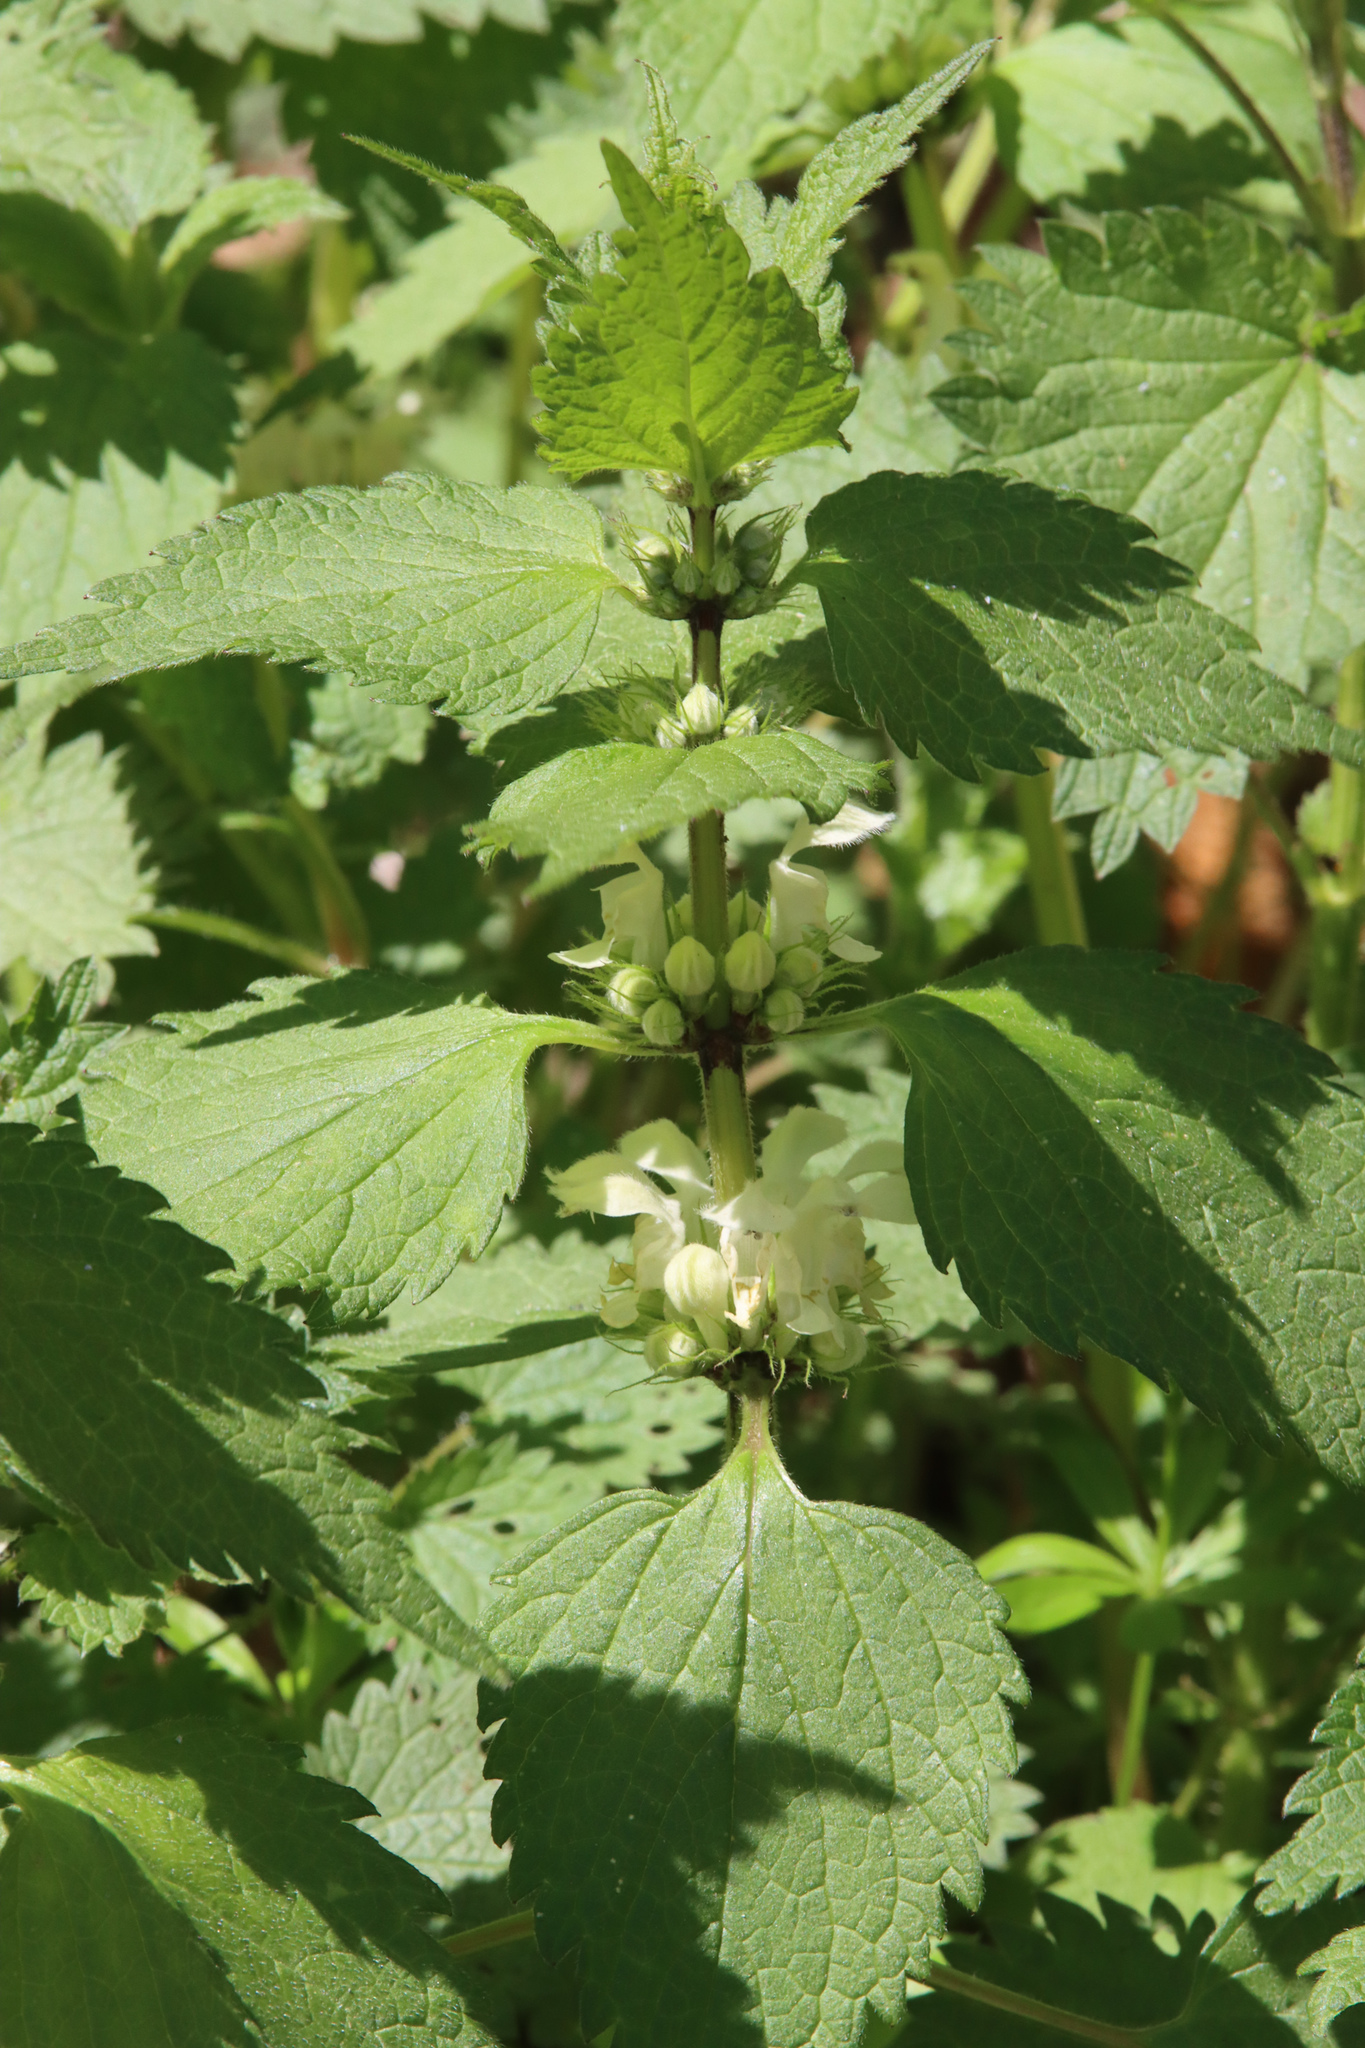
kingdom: Plantae
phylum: Tracheophyta
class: Magnoliopsida
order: Lamiales
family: Lamiaceae
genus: Lamium
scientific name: Lamium album
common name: White dead-nettle
